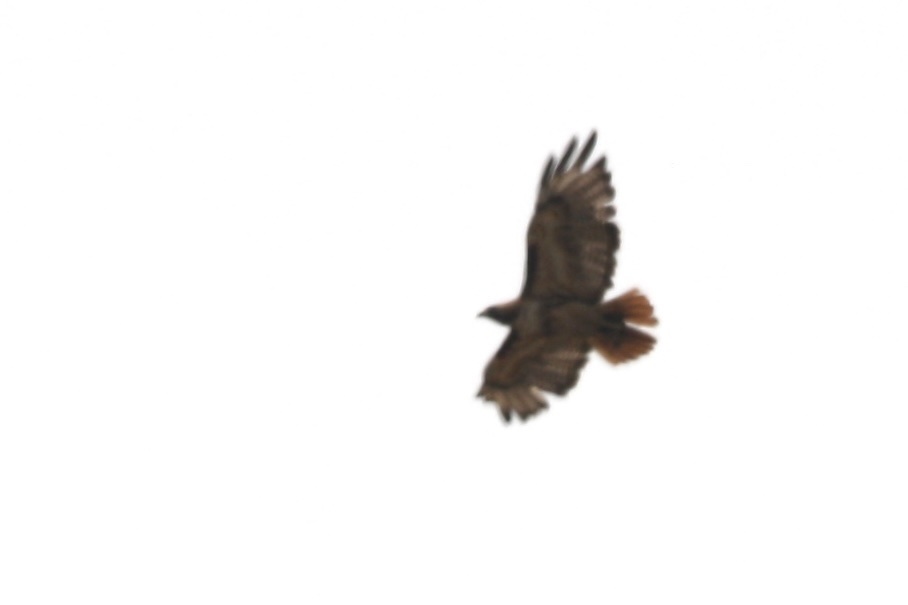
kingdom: Animalia
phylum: Chordata
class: Aves
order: Accipitriformes
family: Accipitridae
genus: Buteo
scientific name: Buteo jamaicensis
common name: Red-tailed hawk
